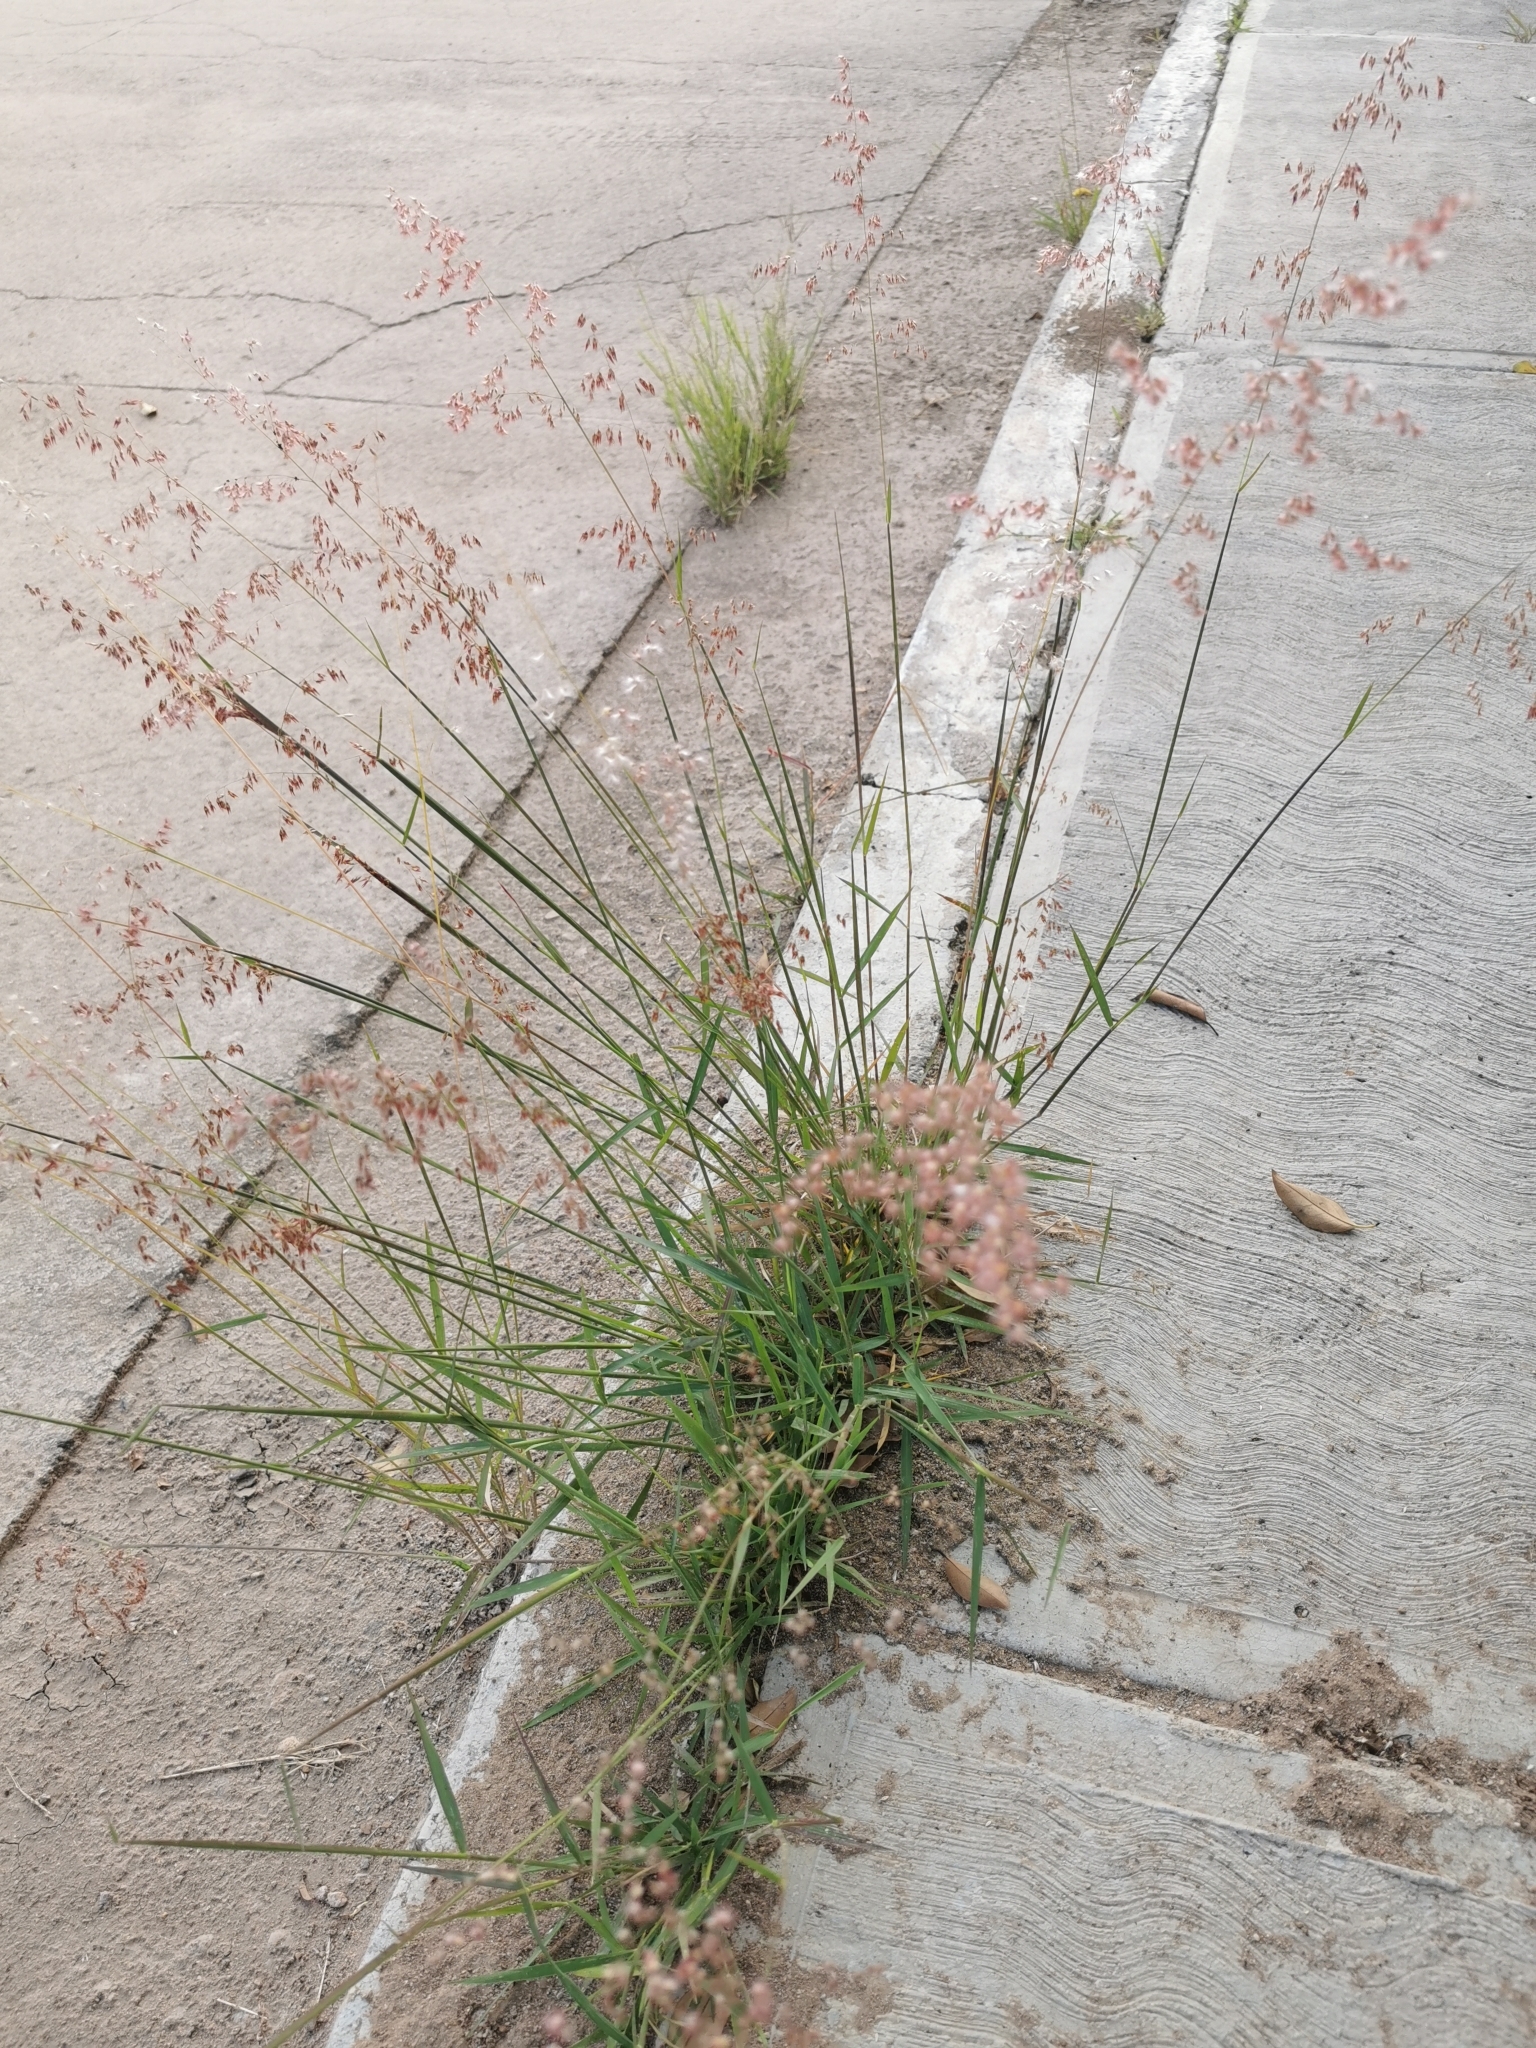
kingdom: Plantae
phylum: Tracheophyta
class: Liliopsida
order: Poales
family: Poaceae
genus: Melinis
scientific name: Melinis repens
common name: Rose natal grass
